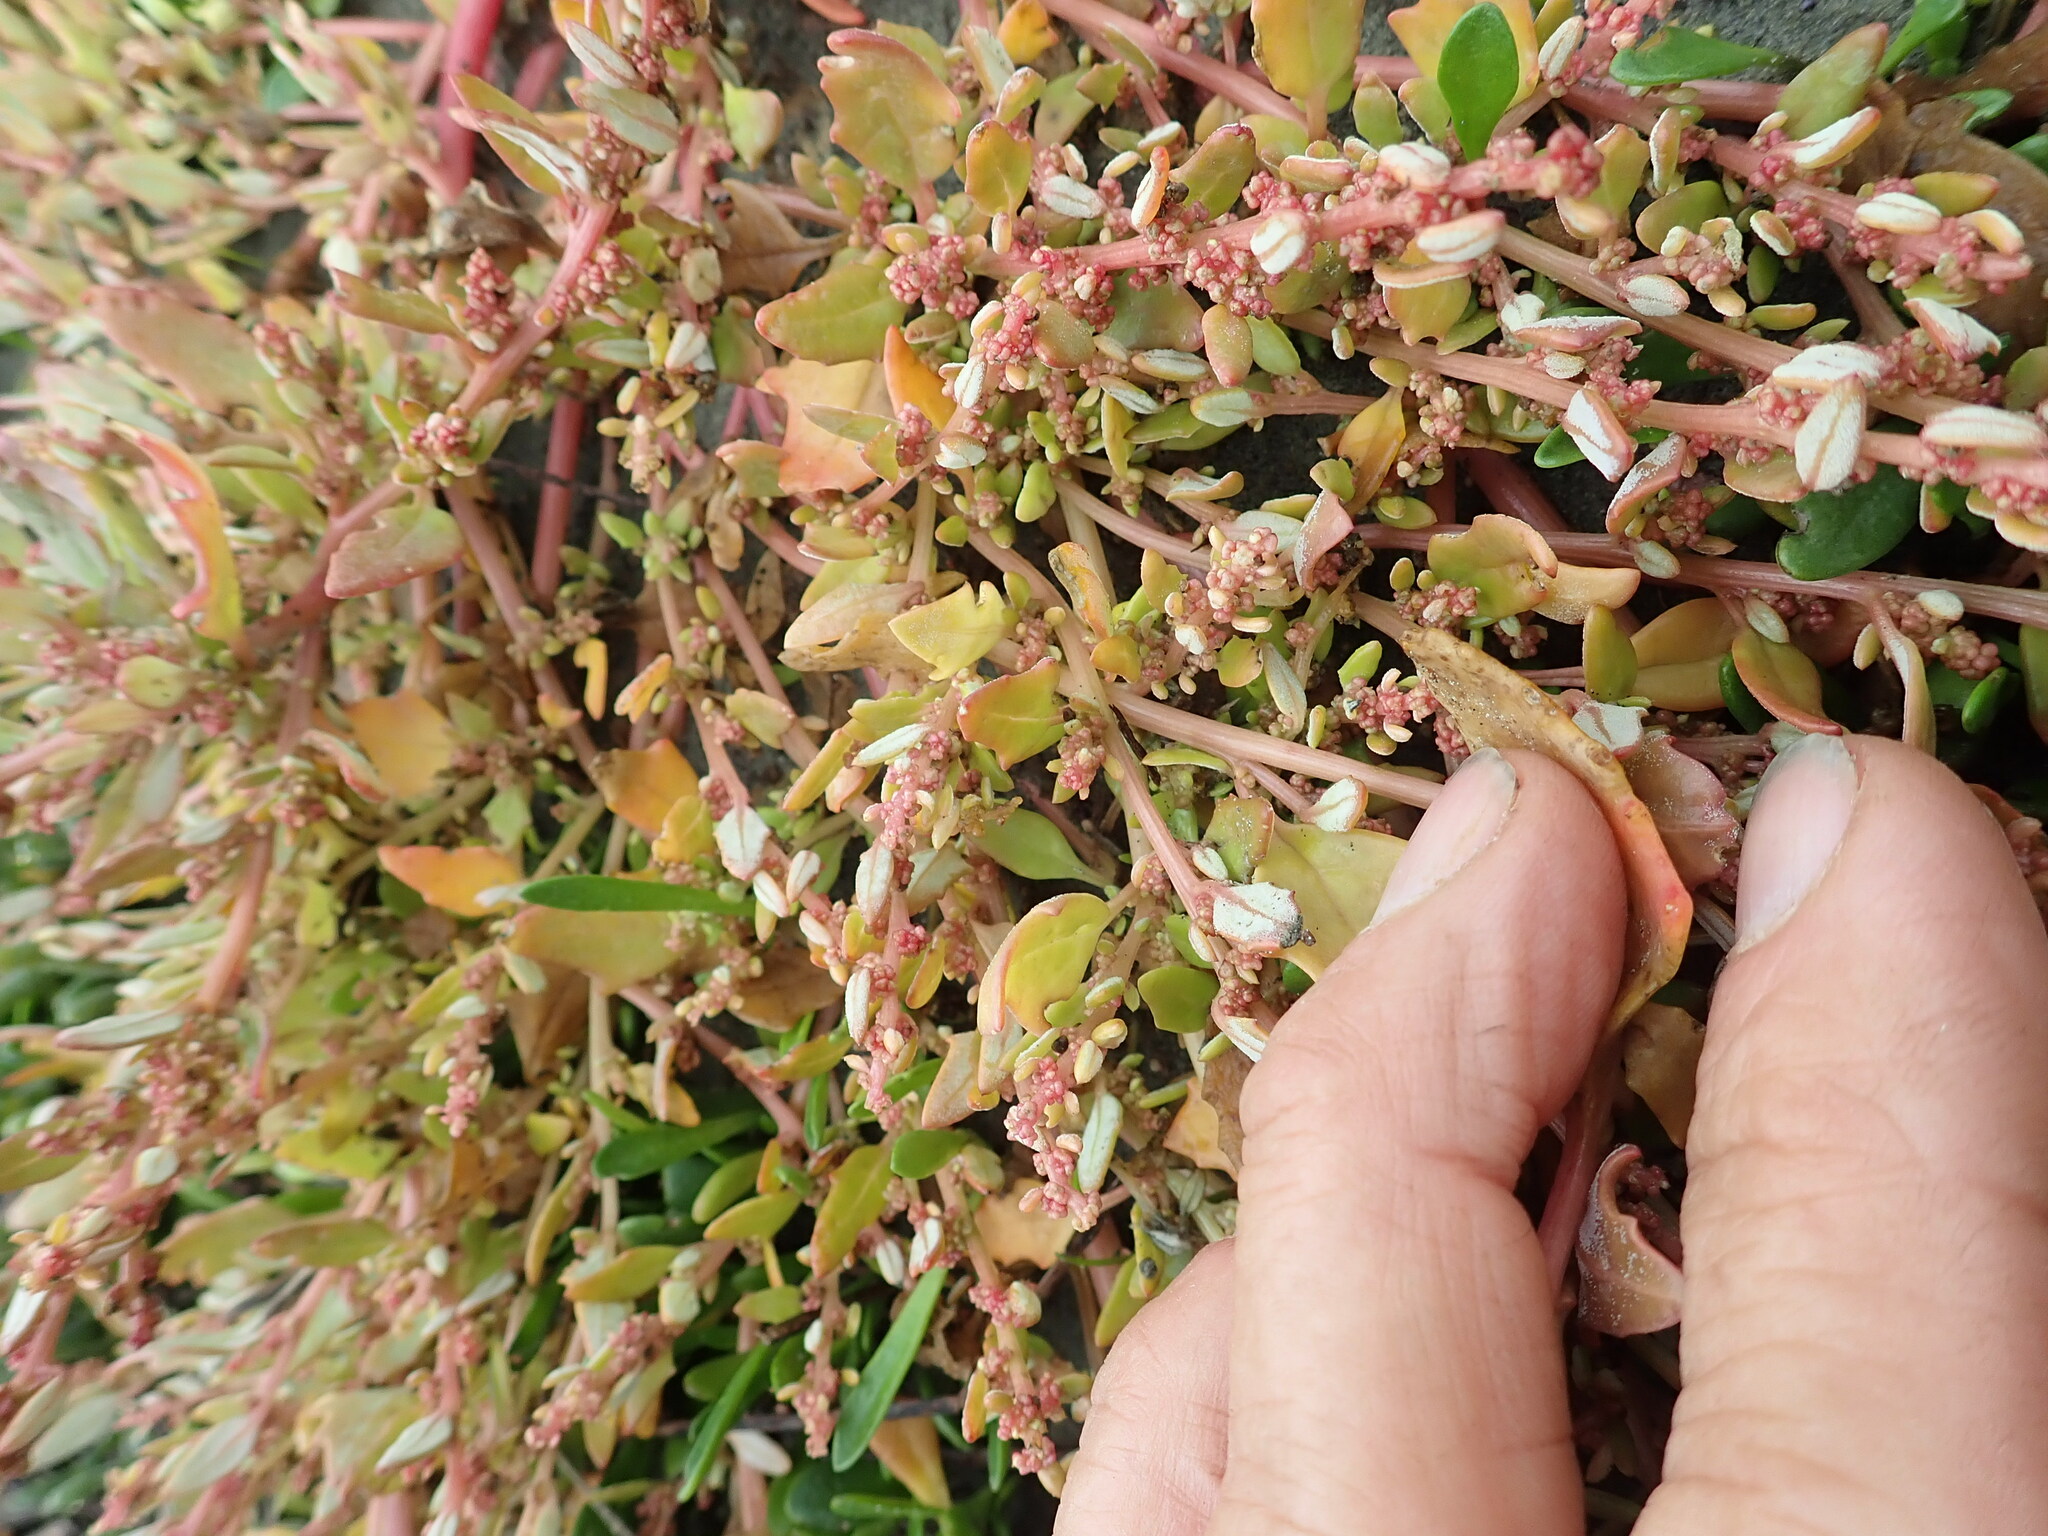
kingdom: Plantae
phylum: Tracheophyta
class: Magnoliopsida
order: Caryophyllales
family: Amaranthaceae
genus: Oxybasis
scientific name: Oxybasis ambigua
